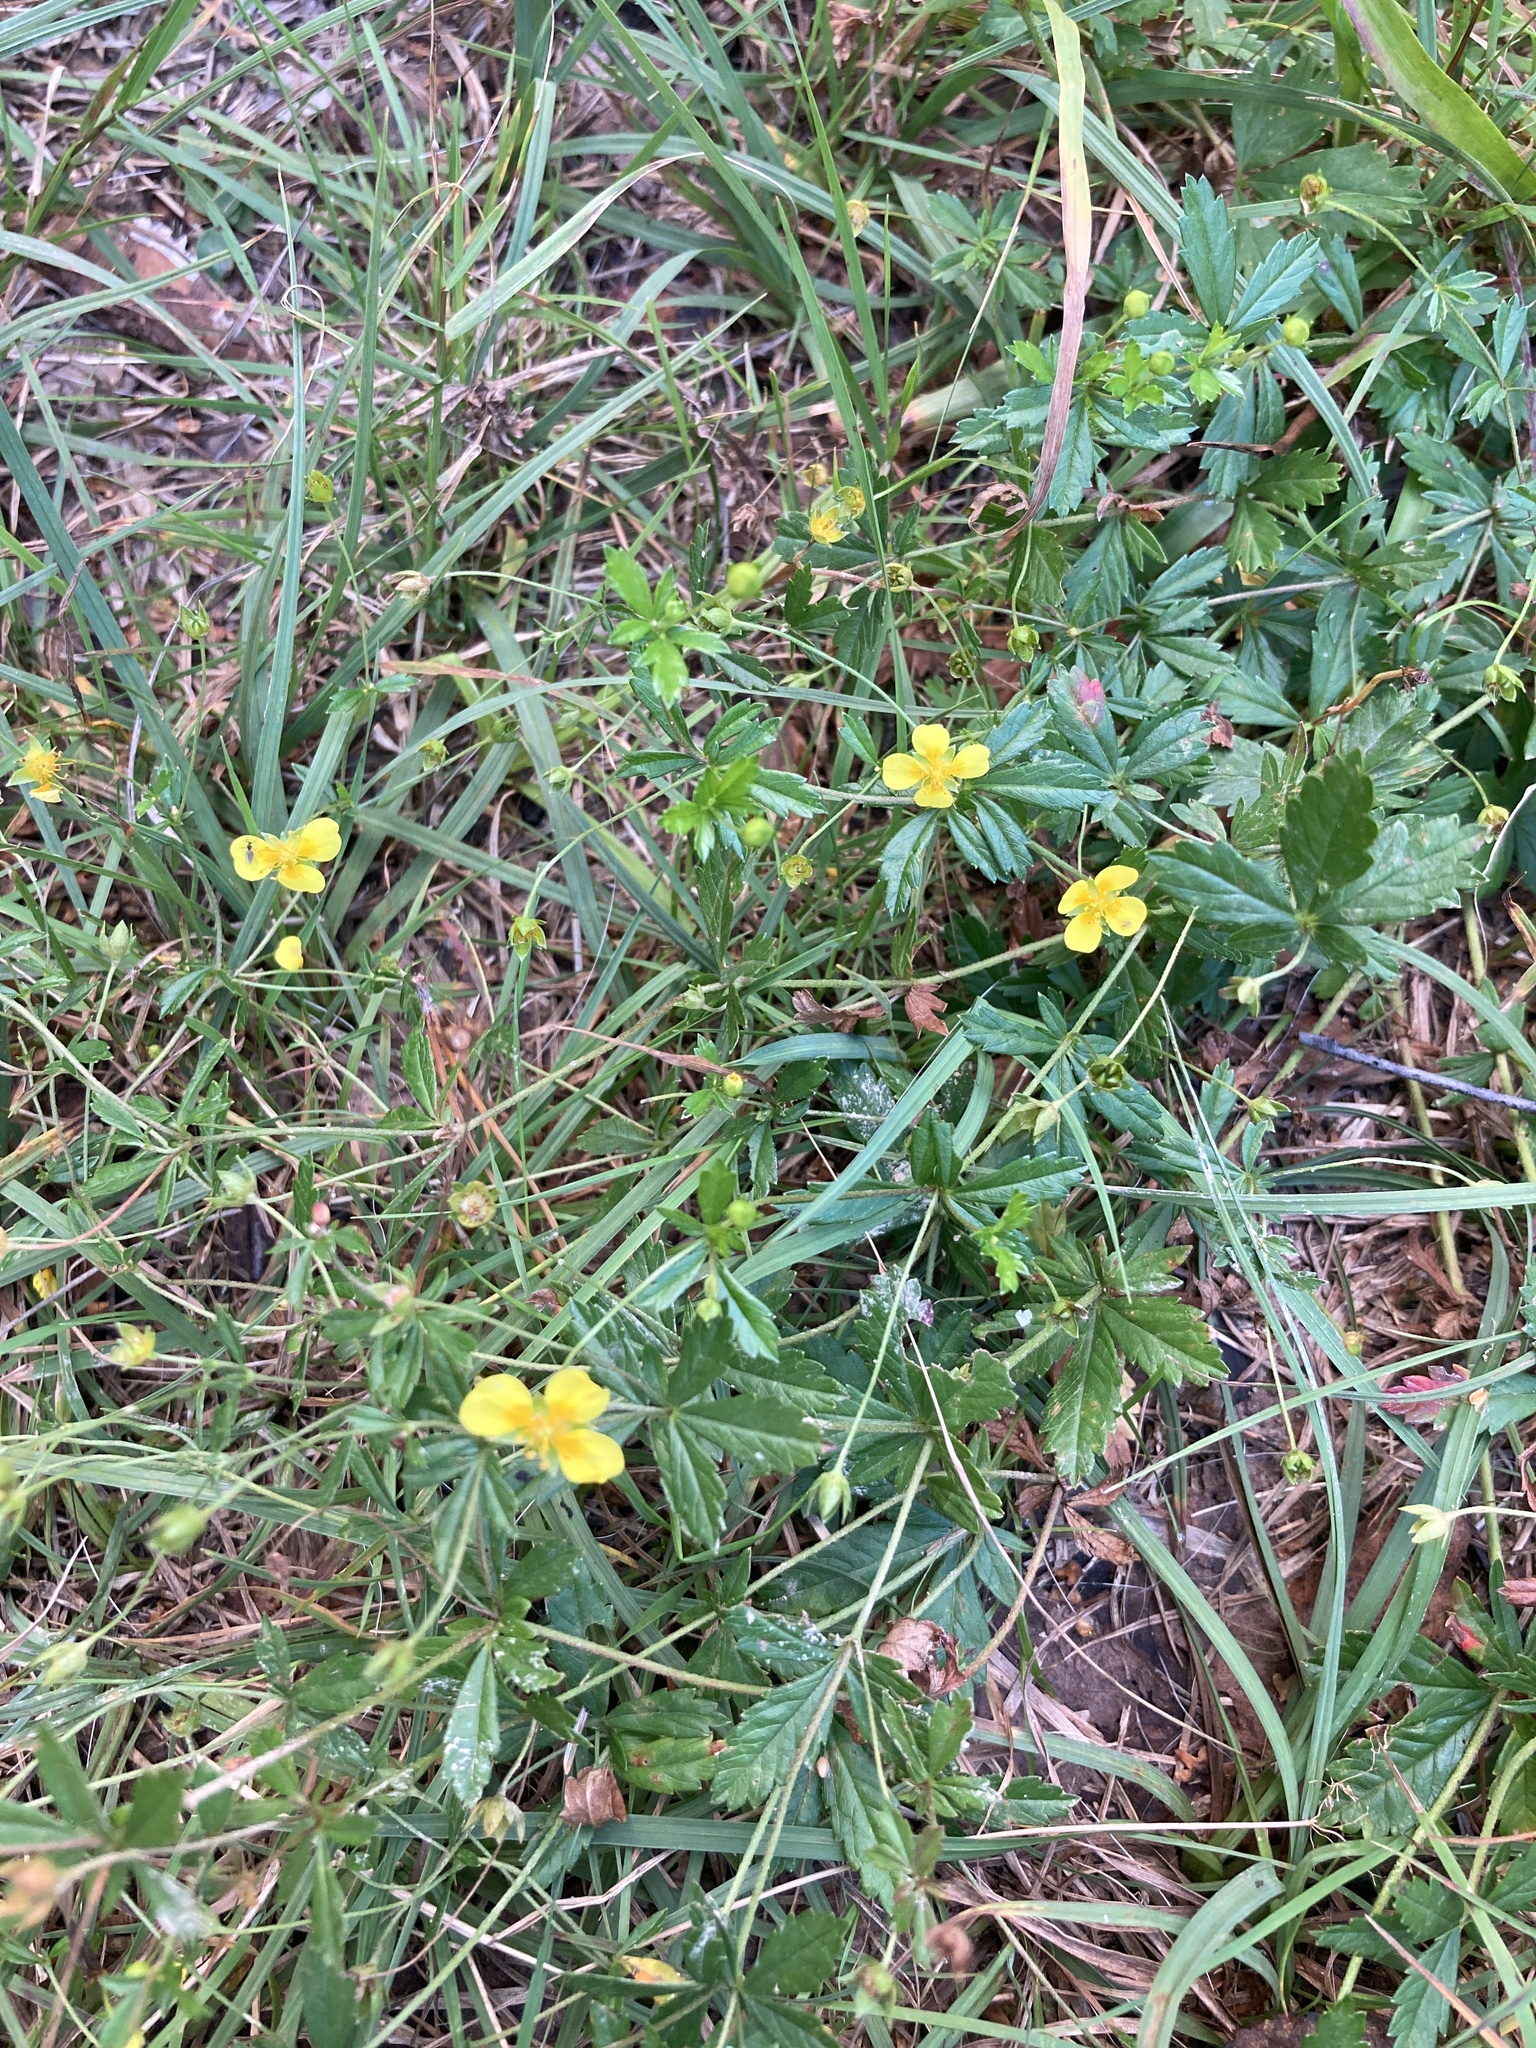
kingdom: Plantae
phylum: Tracheophyta
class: Magnoliopsida
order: Rosales
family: Rosaceae
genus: Potentilla
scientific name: Potentilla erecta
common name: Tormentil
